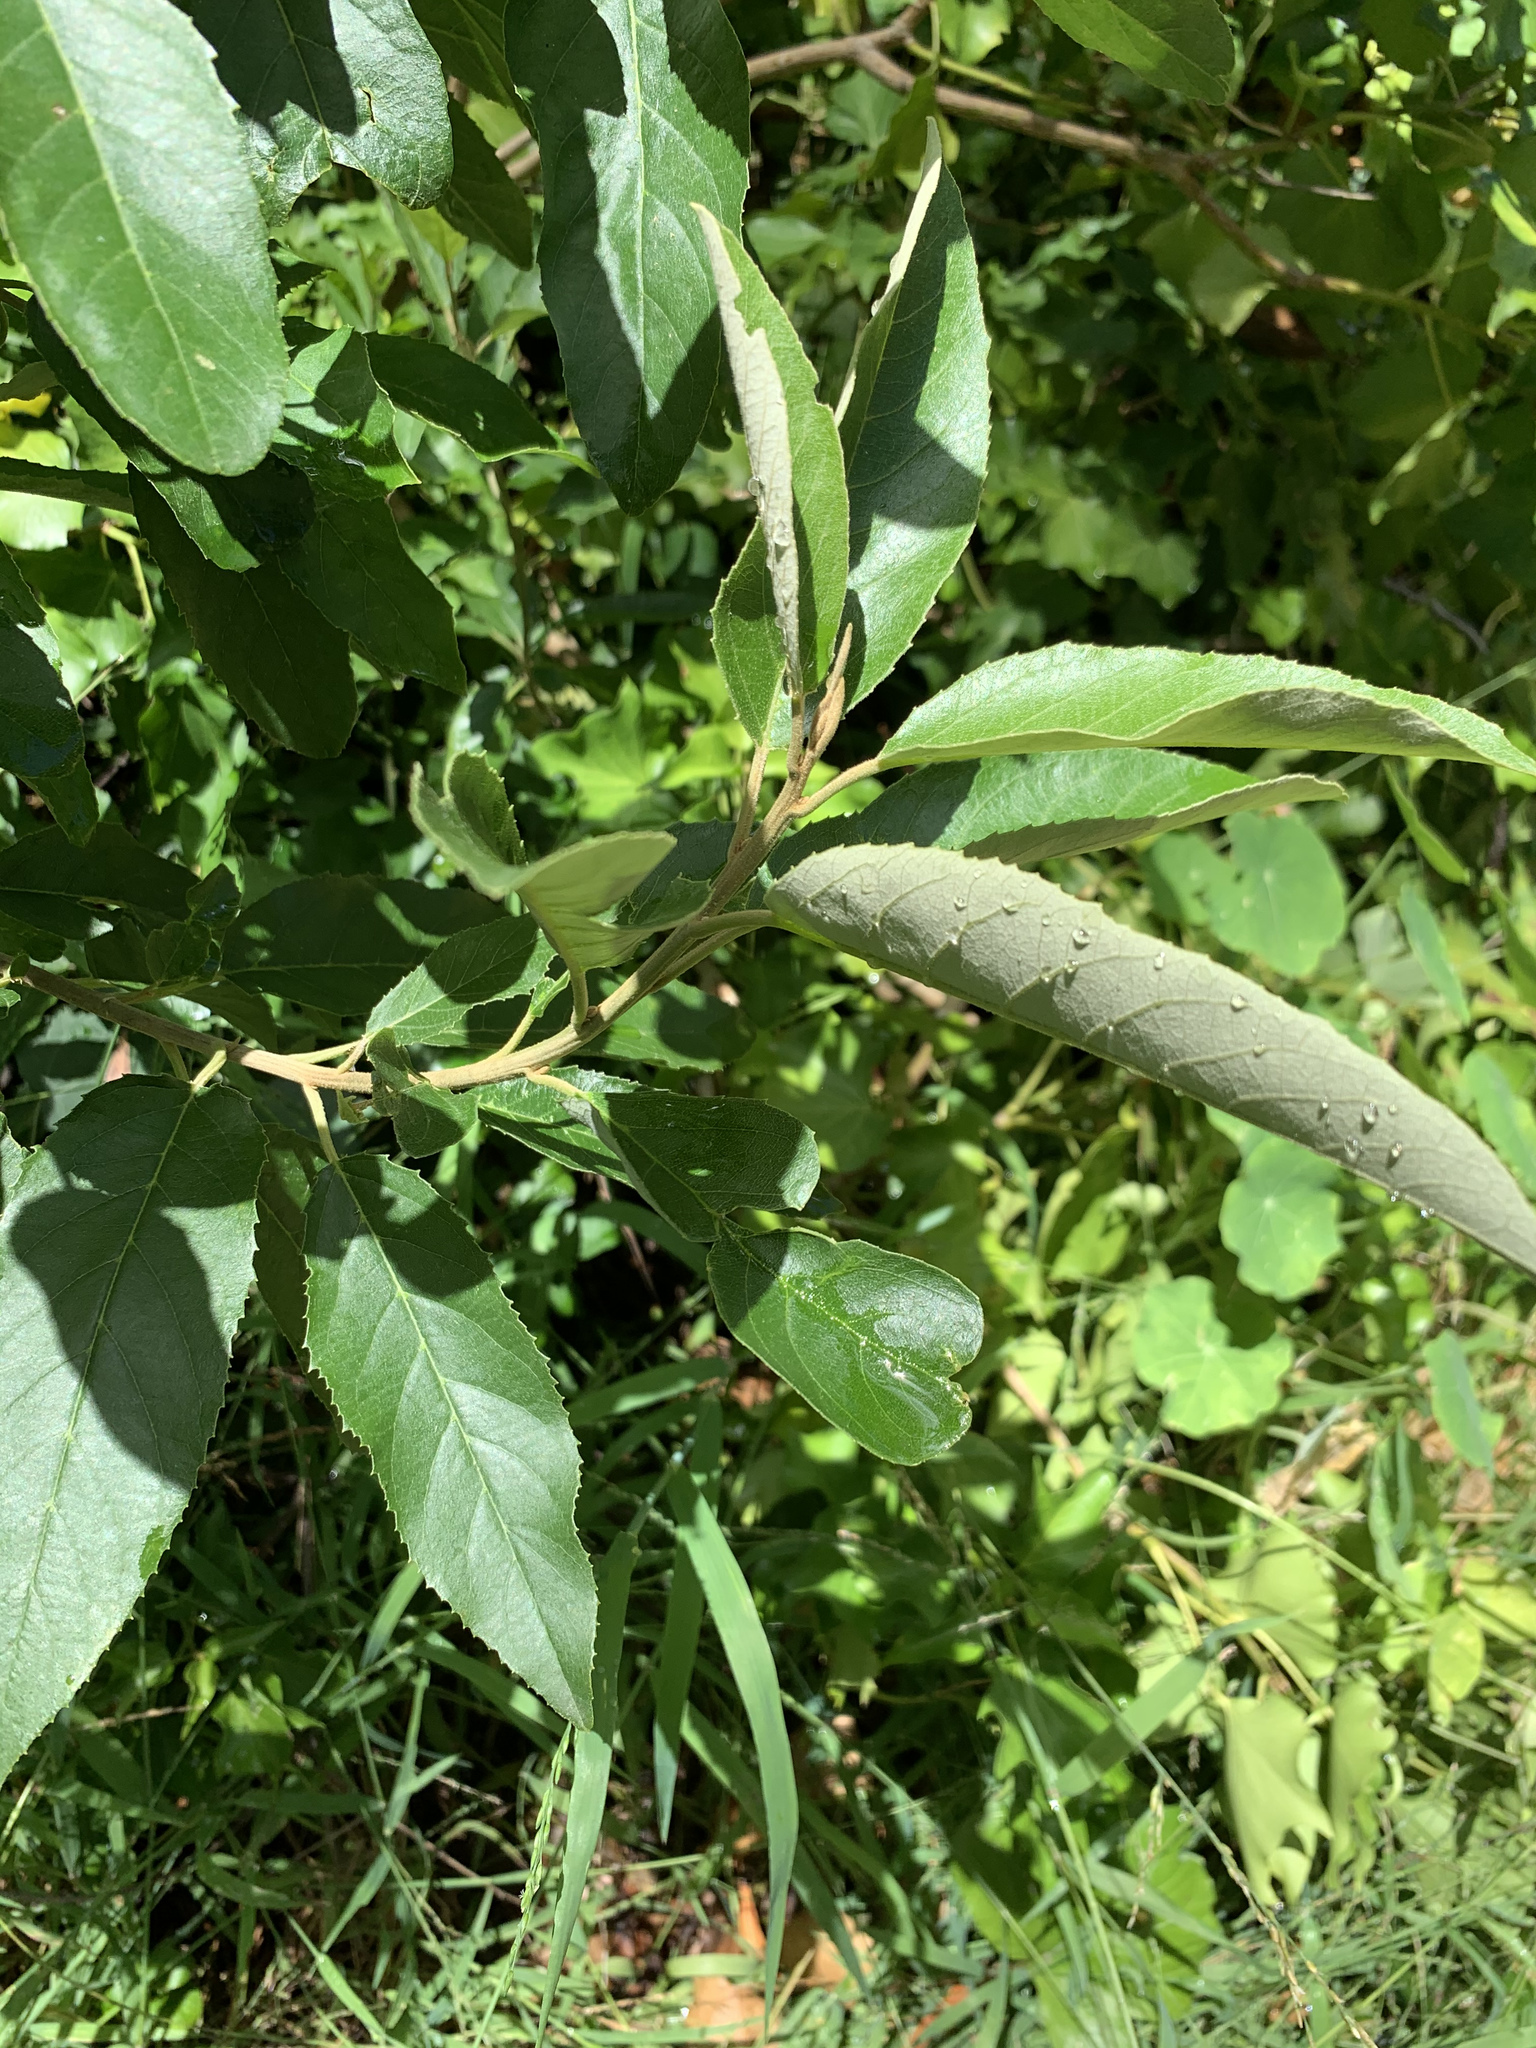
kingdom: Plantae
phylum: Tracheophyta
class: Magnoliopsida
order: Malpighiales
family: Achariaceae
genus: Kiggelaria
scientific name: Kiggelaria africana
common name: Wild peach
